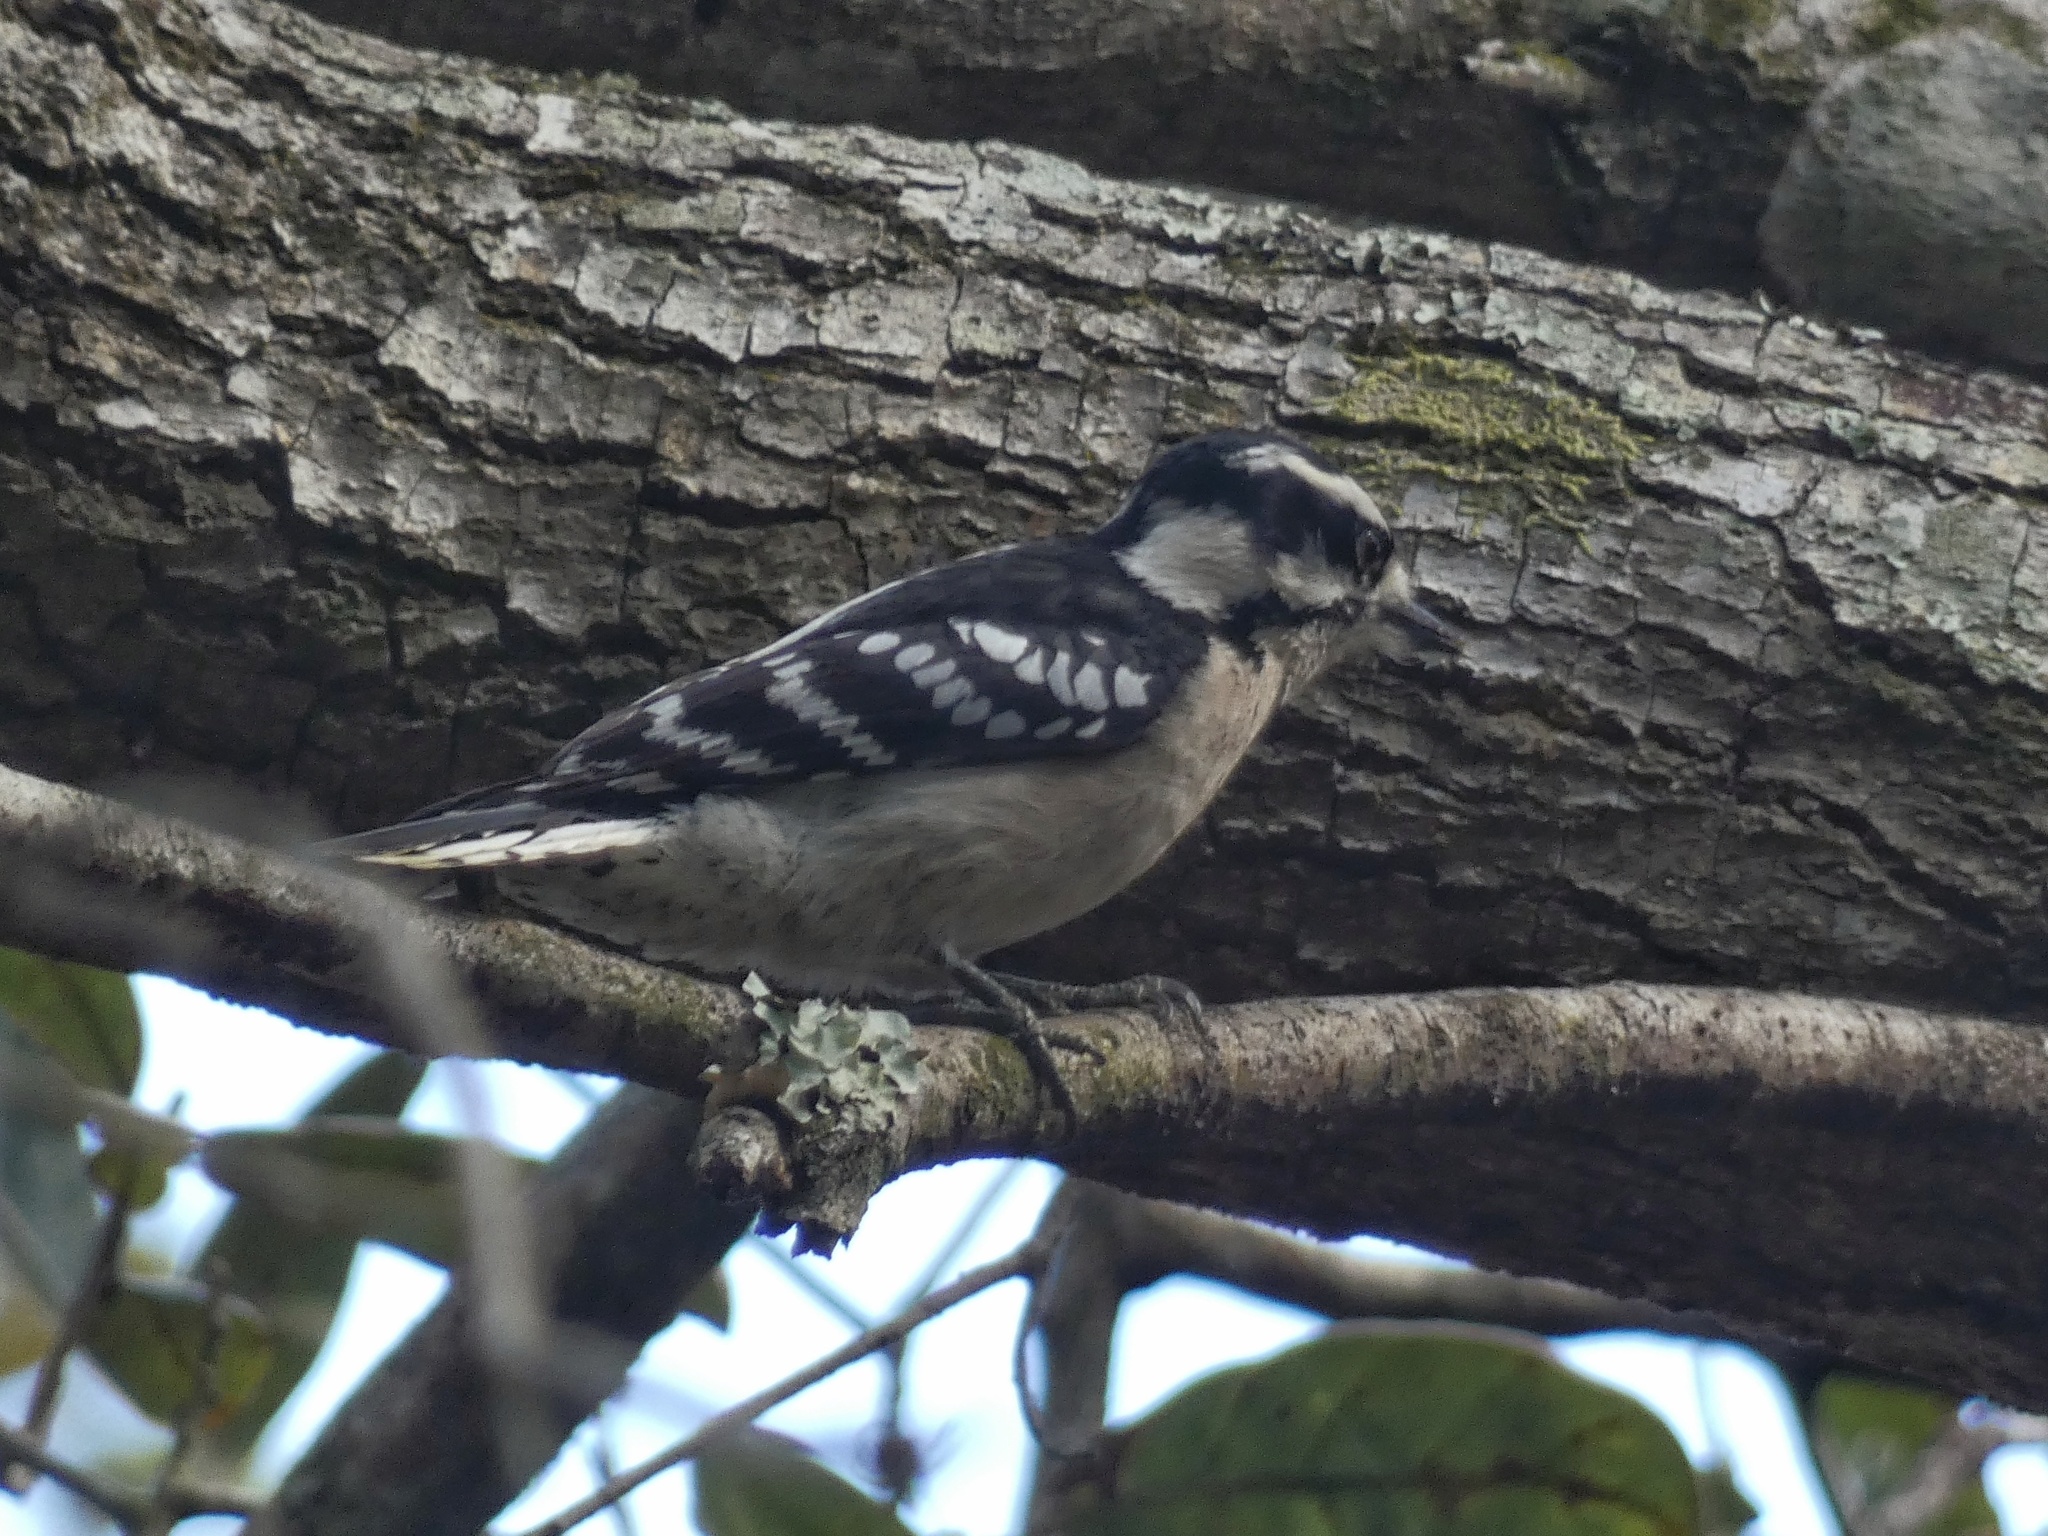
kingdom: Animalia
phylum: Chordata
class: Aves
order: Piciformes
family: Picidae
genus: Dryobates
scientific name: Dryobates pubescens
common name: Downy woodpecker
